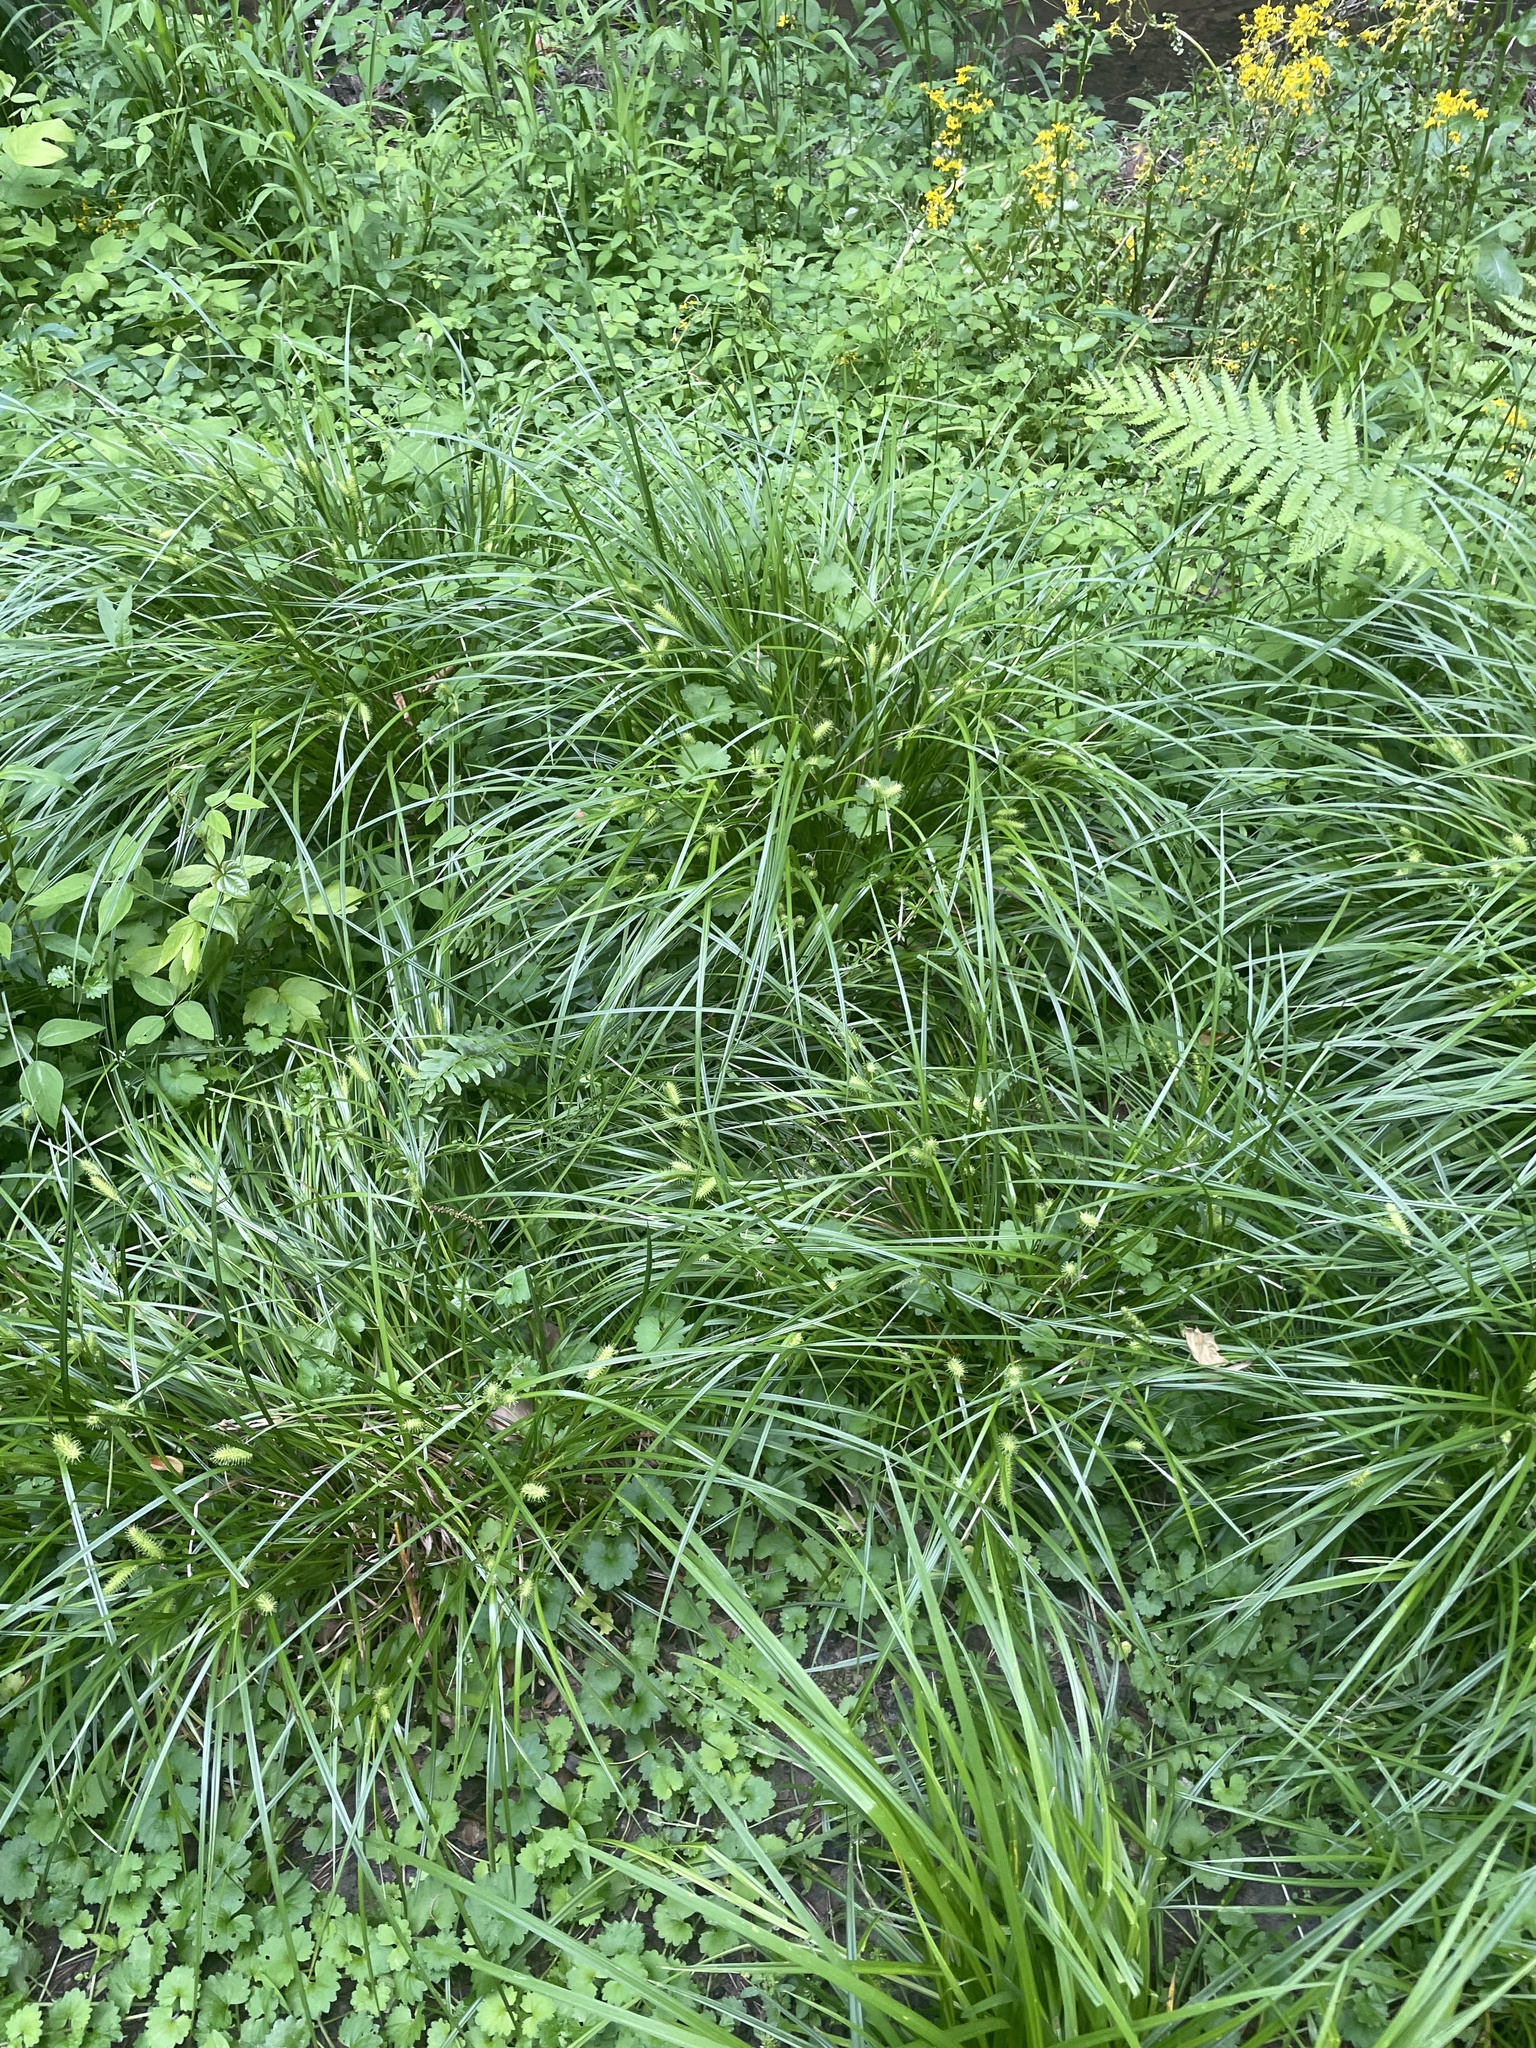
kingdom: Plantae
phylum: Tracheophyta
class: Liliopsida
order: Poales
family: Cyperaceae
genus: Carex
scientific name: Carex lurida
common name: Sallow sedge
